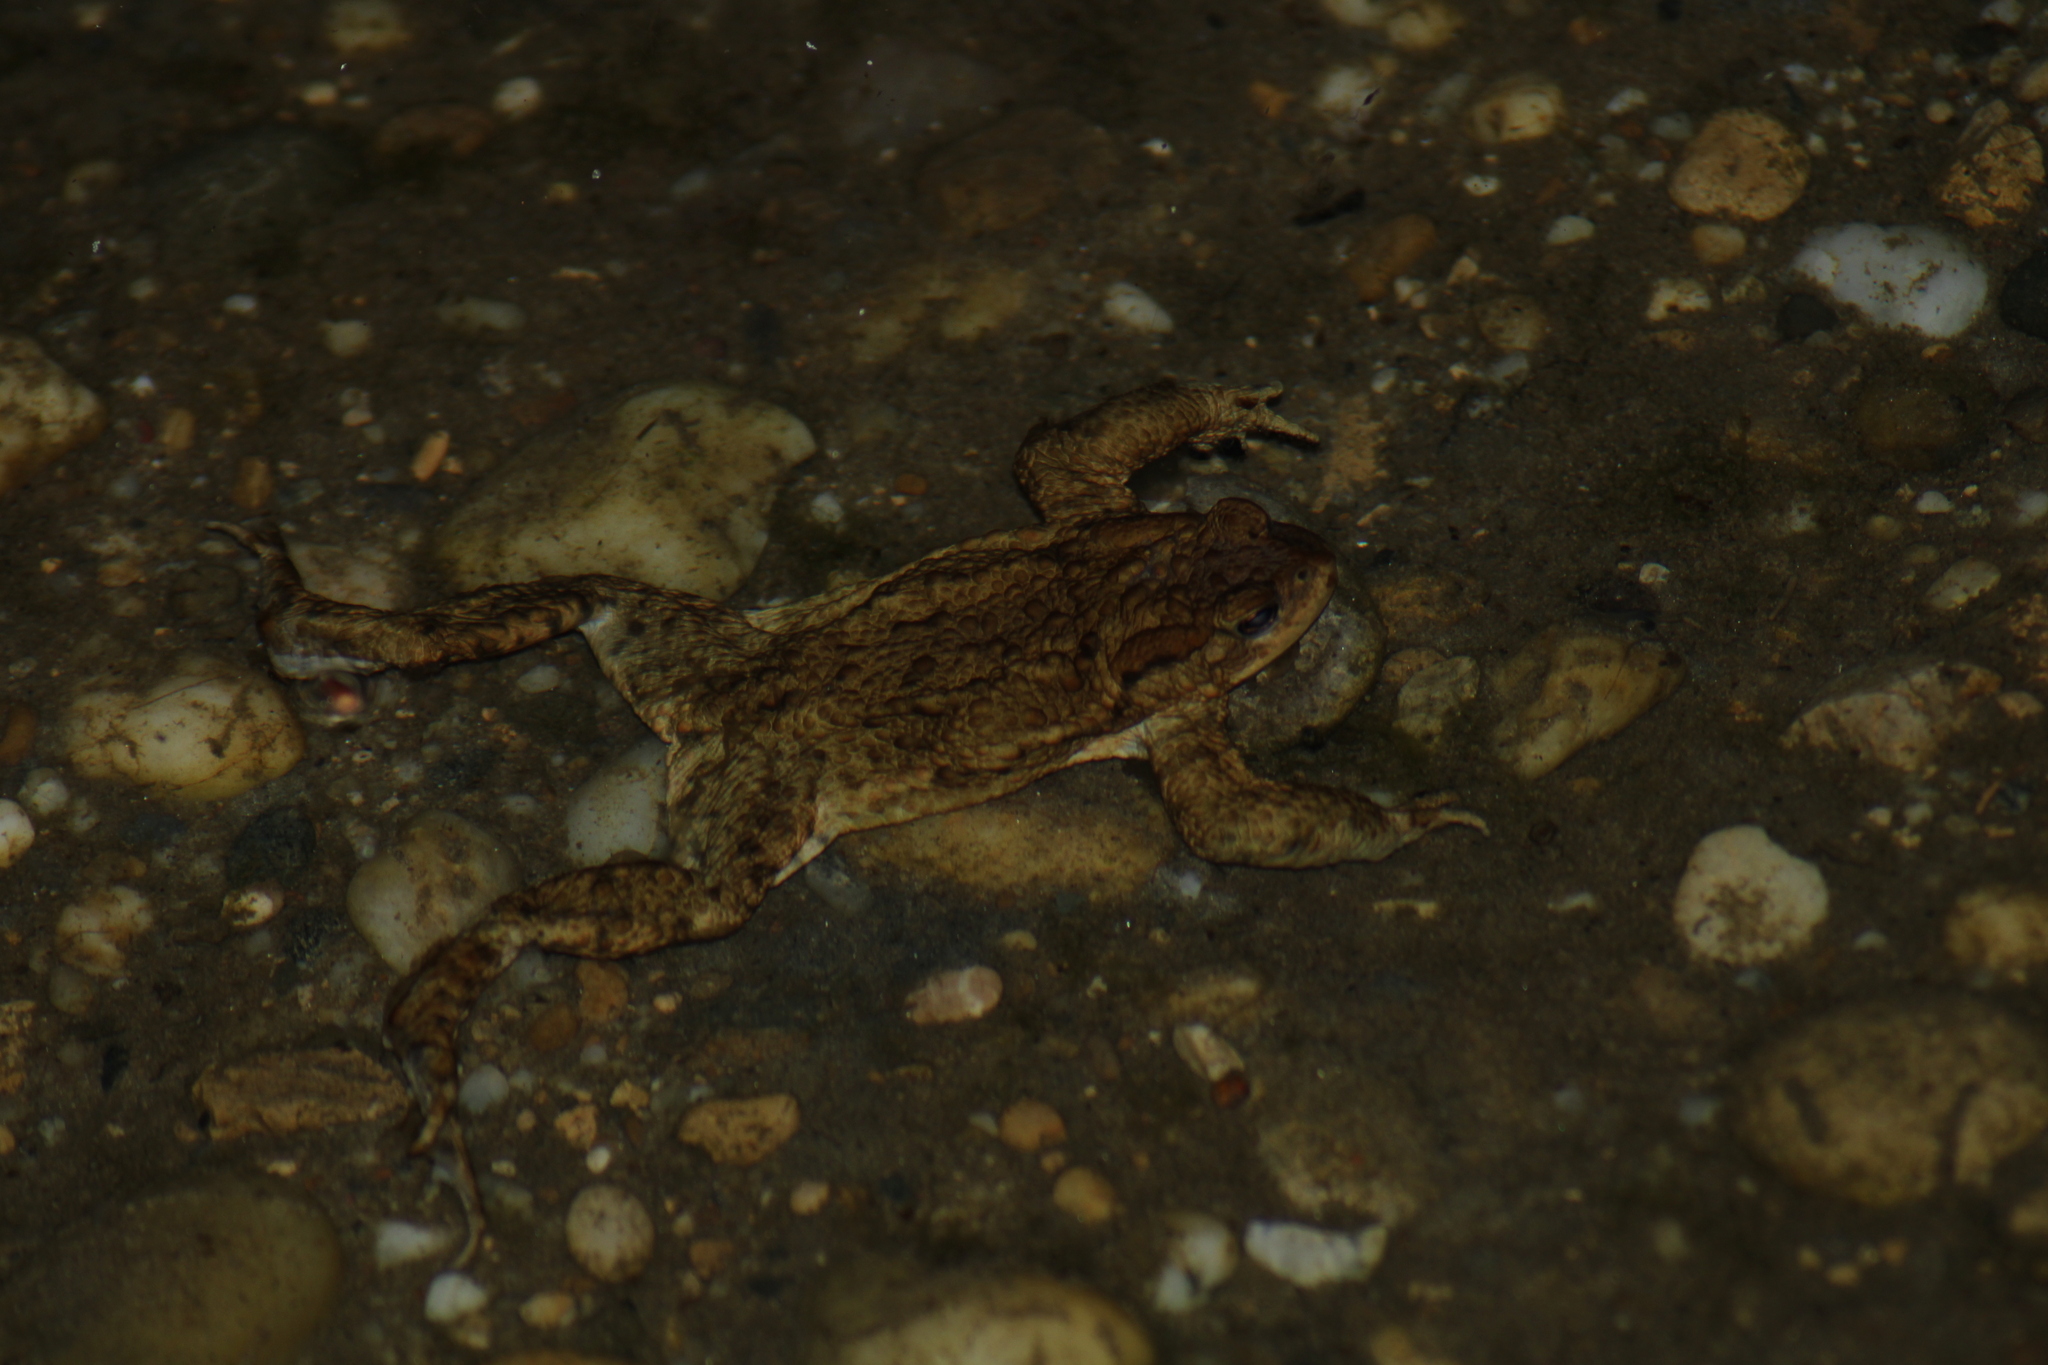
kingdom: Animalia
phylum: Chordata
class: Amphibia
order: Anura
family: Bufonidae
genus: Bufo
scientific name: Bufo bufo
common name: Common toad
